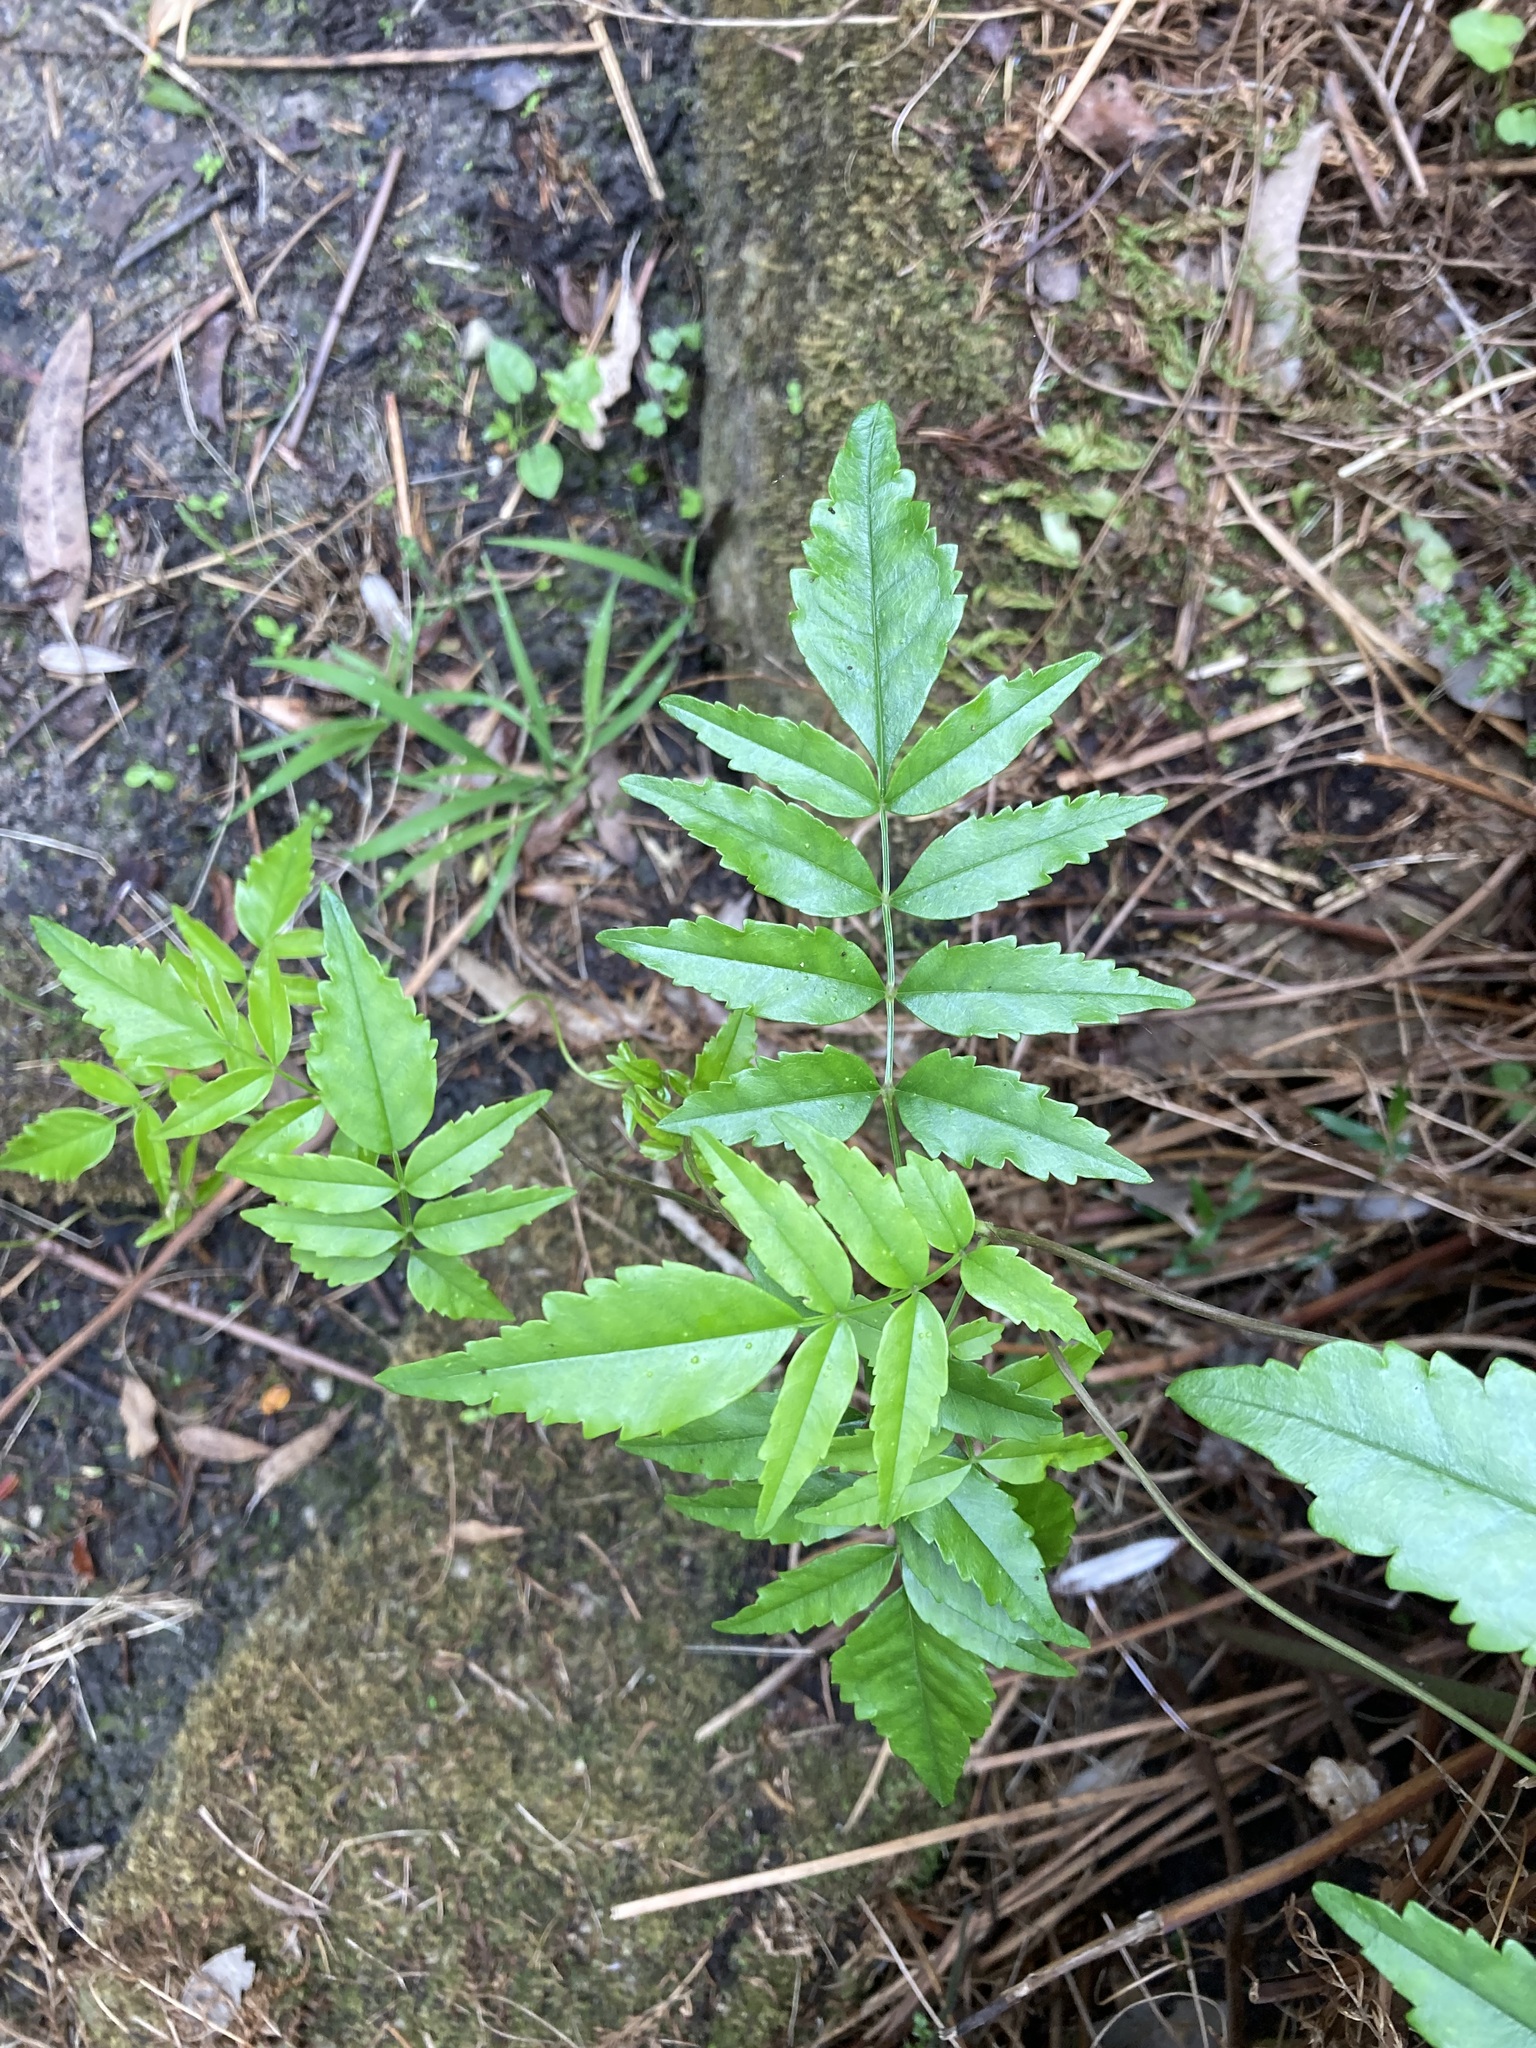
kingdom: Plantae
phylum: Tracheophyta
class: Magnoliopsida
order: Lamiales
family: Bignoniaceae
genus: Pandorea
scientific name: Pandorea pandorana
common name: Wonga-wonga-vine
